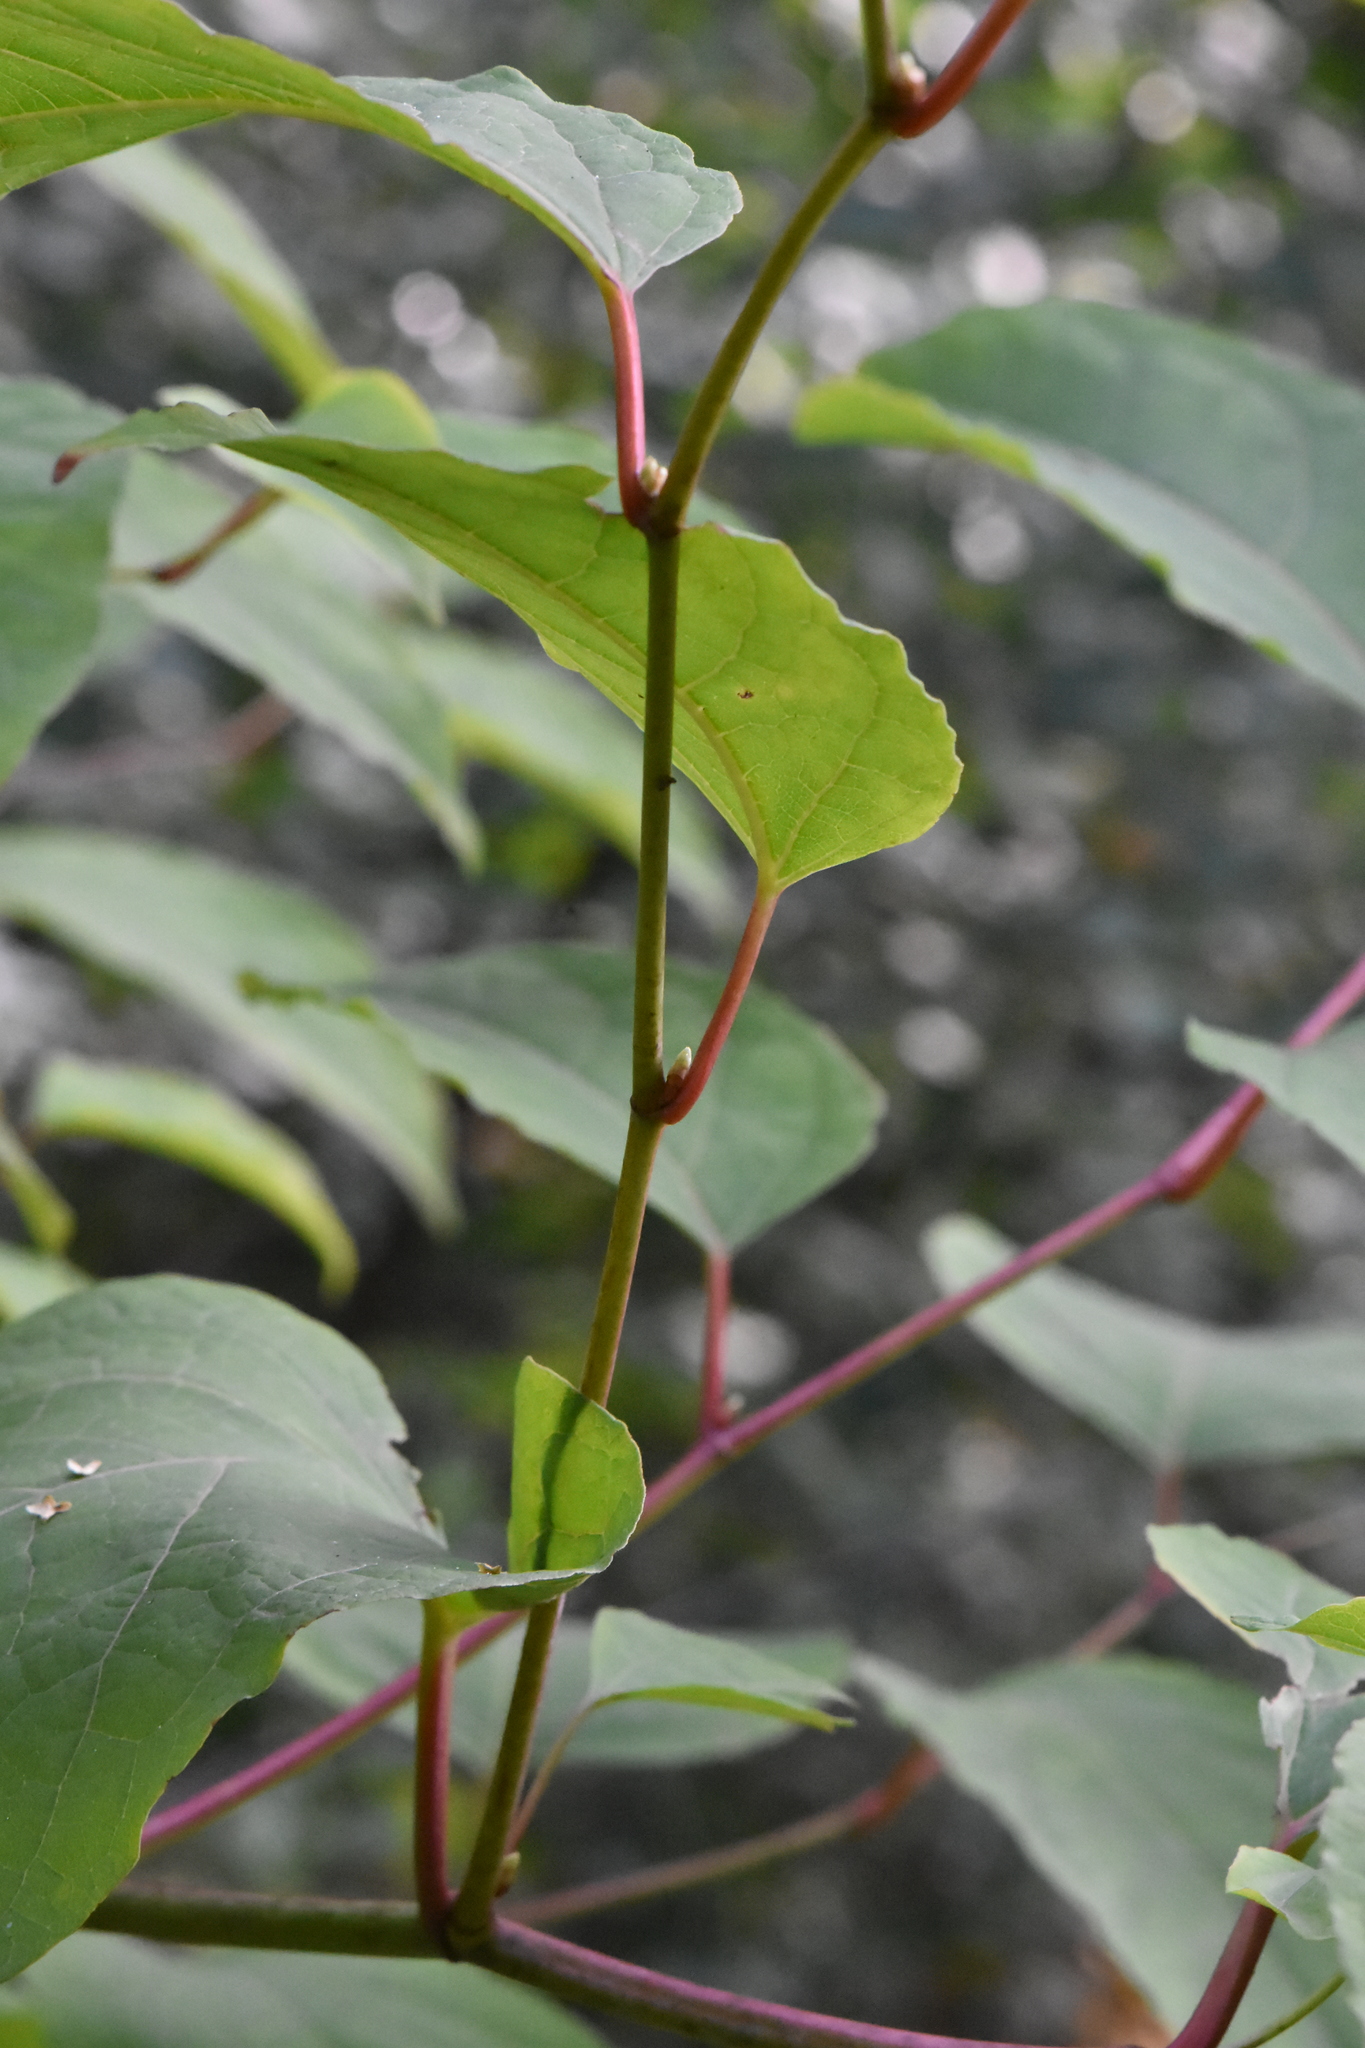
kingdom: Plantae
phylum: Tracheophyta
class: Magnoliopsida
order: Caryophyllales
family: Polygonaceae
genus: Reynoutria
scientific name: Reynoutria bohemica
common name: Bohemian knotweed
